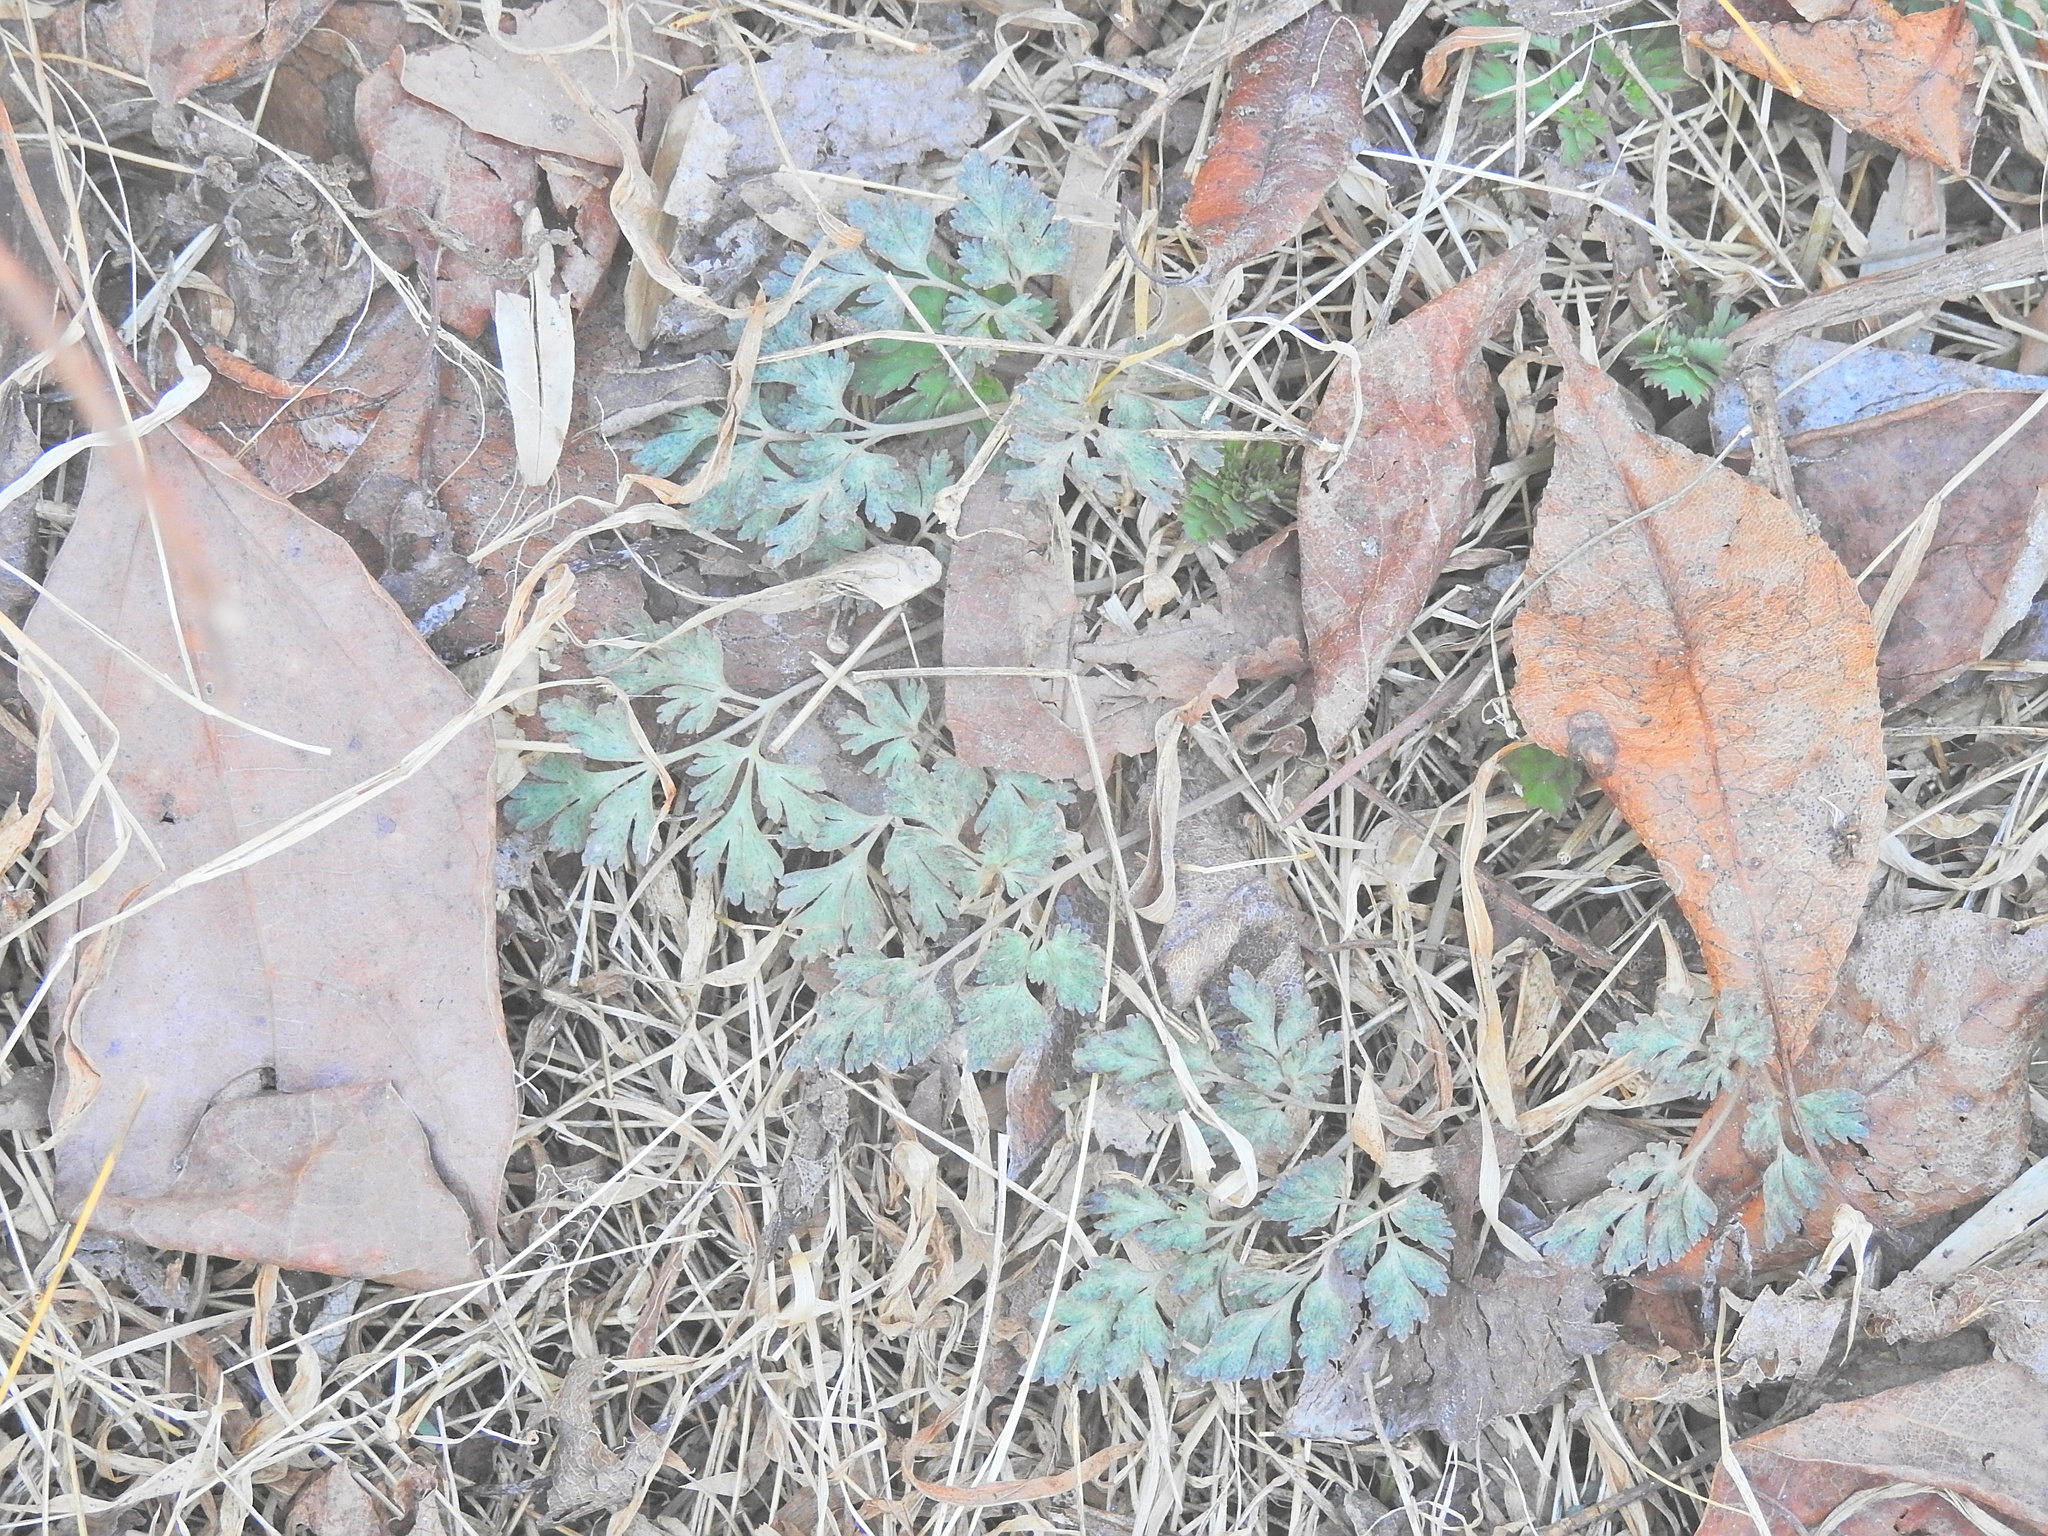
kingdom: Plantae
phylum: Tracheophyta
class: Magnoliopsida
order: Ranunculales
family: Papaveraceae
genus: Corydalis
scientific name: Corydalis incisa
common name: Incised fumewort
